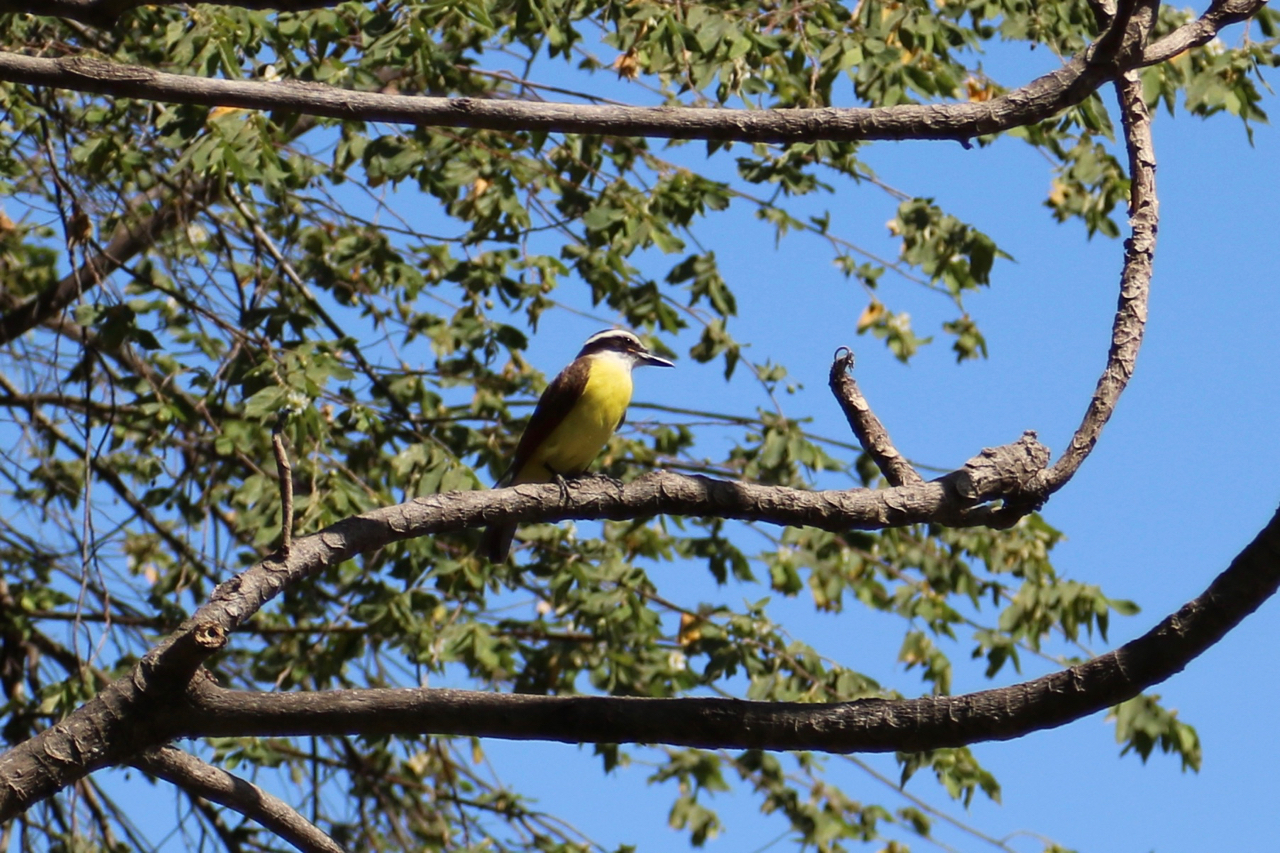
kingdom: Animalia
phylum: Chordata
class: Aves
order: Passeriformes
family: Tyrannidae
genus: Pitangus
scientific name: Pitangus sulphuratus
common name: Great kiskadee
